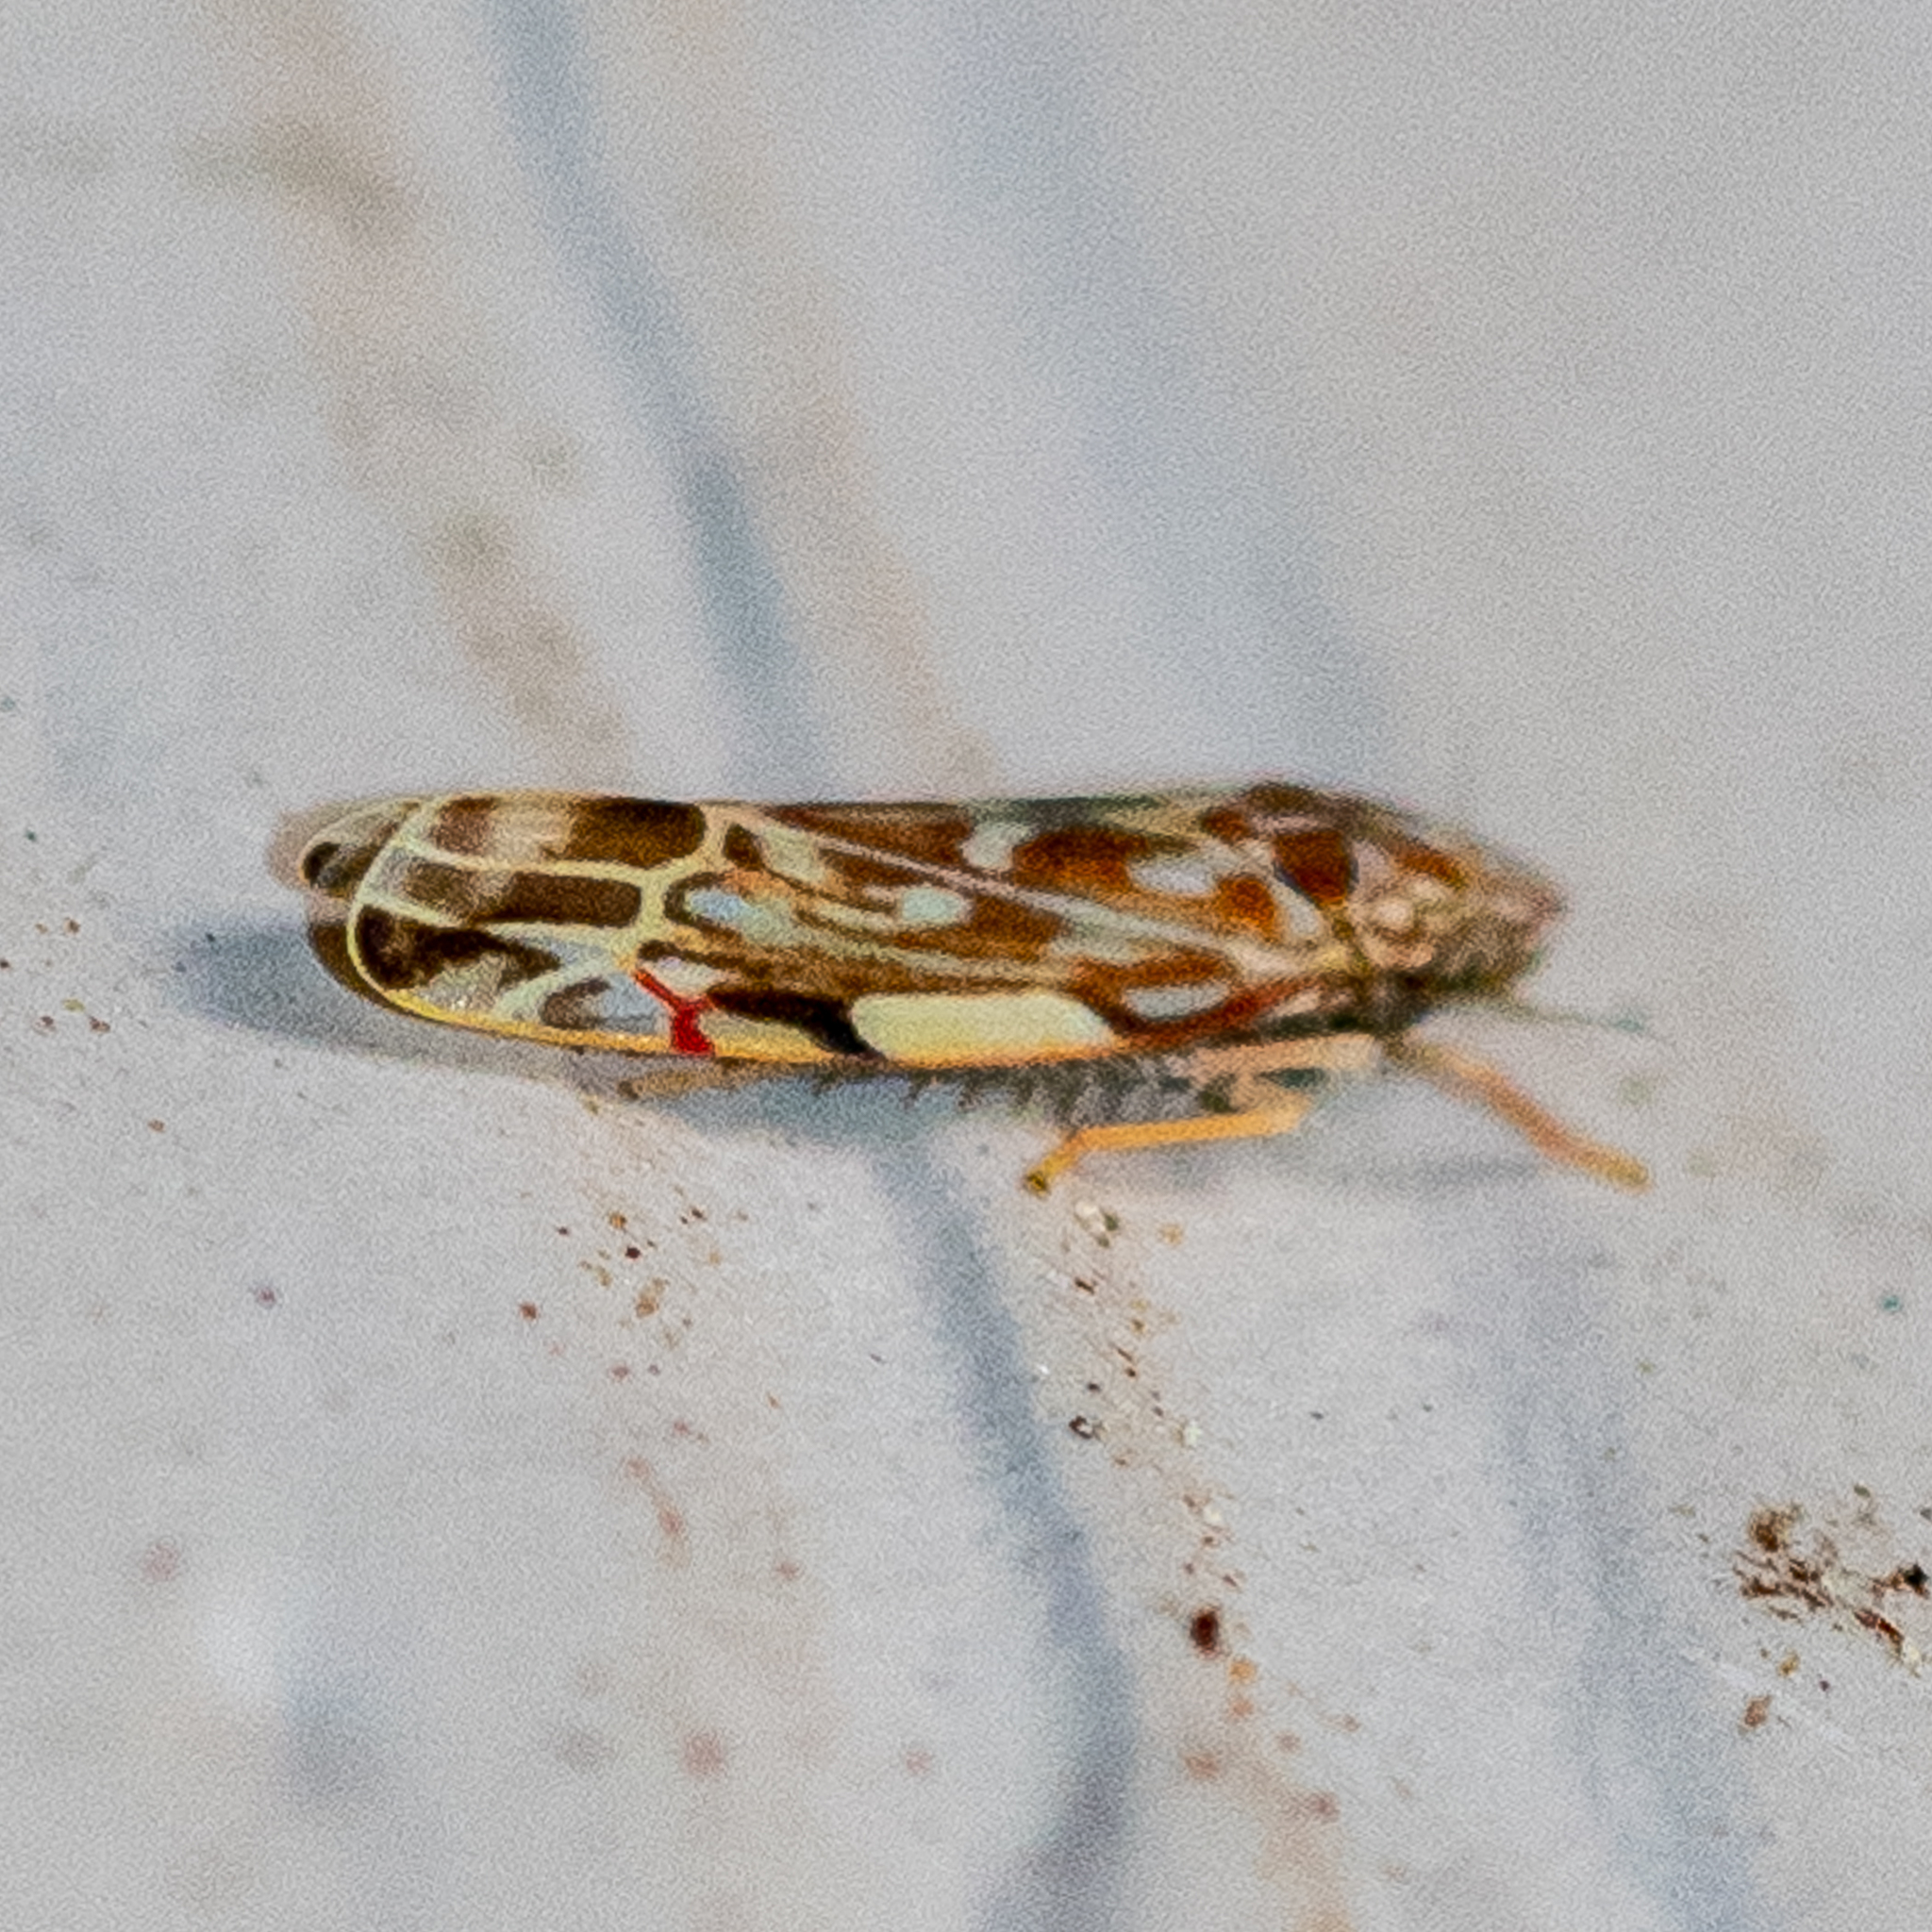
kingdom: Animalia
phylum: Arthropoda
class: Insecta
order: Hemiptera
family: Cicadellidae
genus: Erasmoneura
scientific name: Erasmoneura vulnerata
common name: The wounded leafhopper
